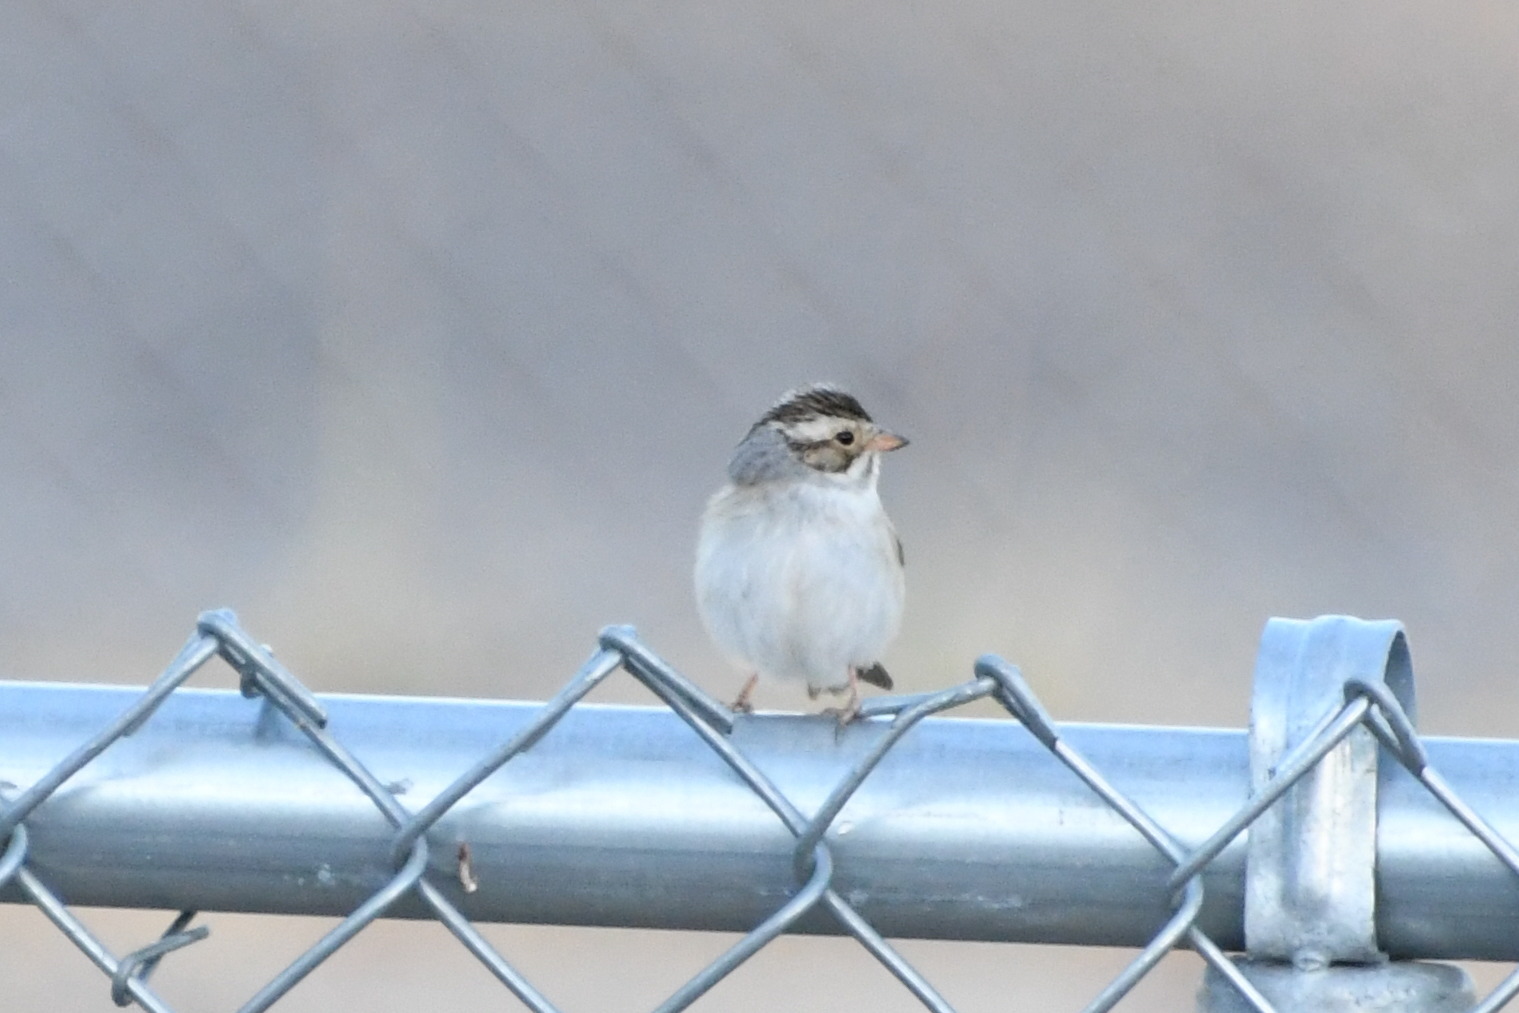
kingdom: Animalia
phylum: Chordata
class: Aves
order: Passeriformes
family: Passerellidae
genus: Spizella
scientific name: Spizella pallida
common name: Clay-colored sparrow
